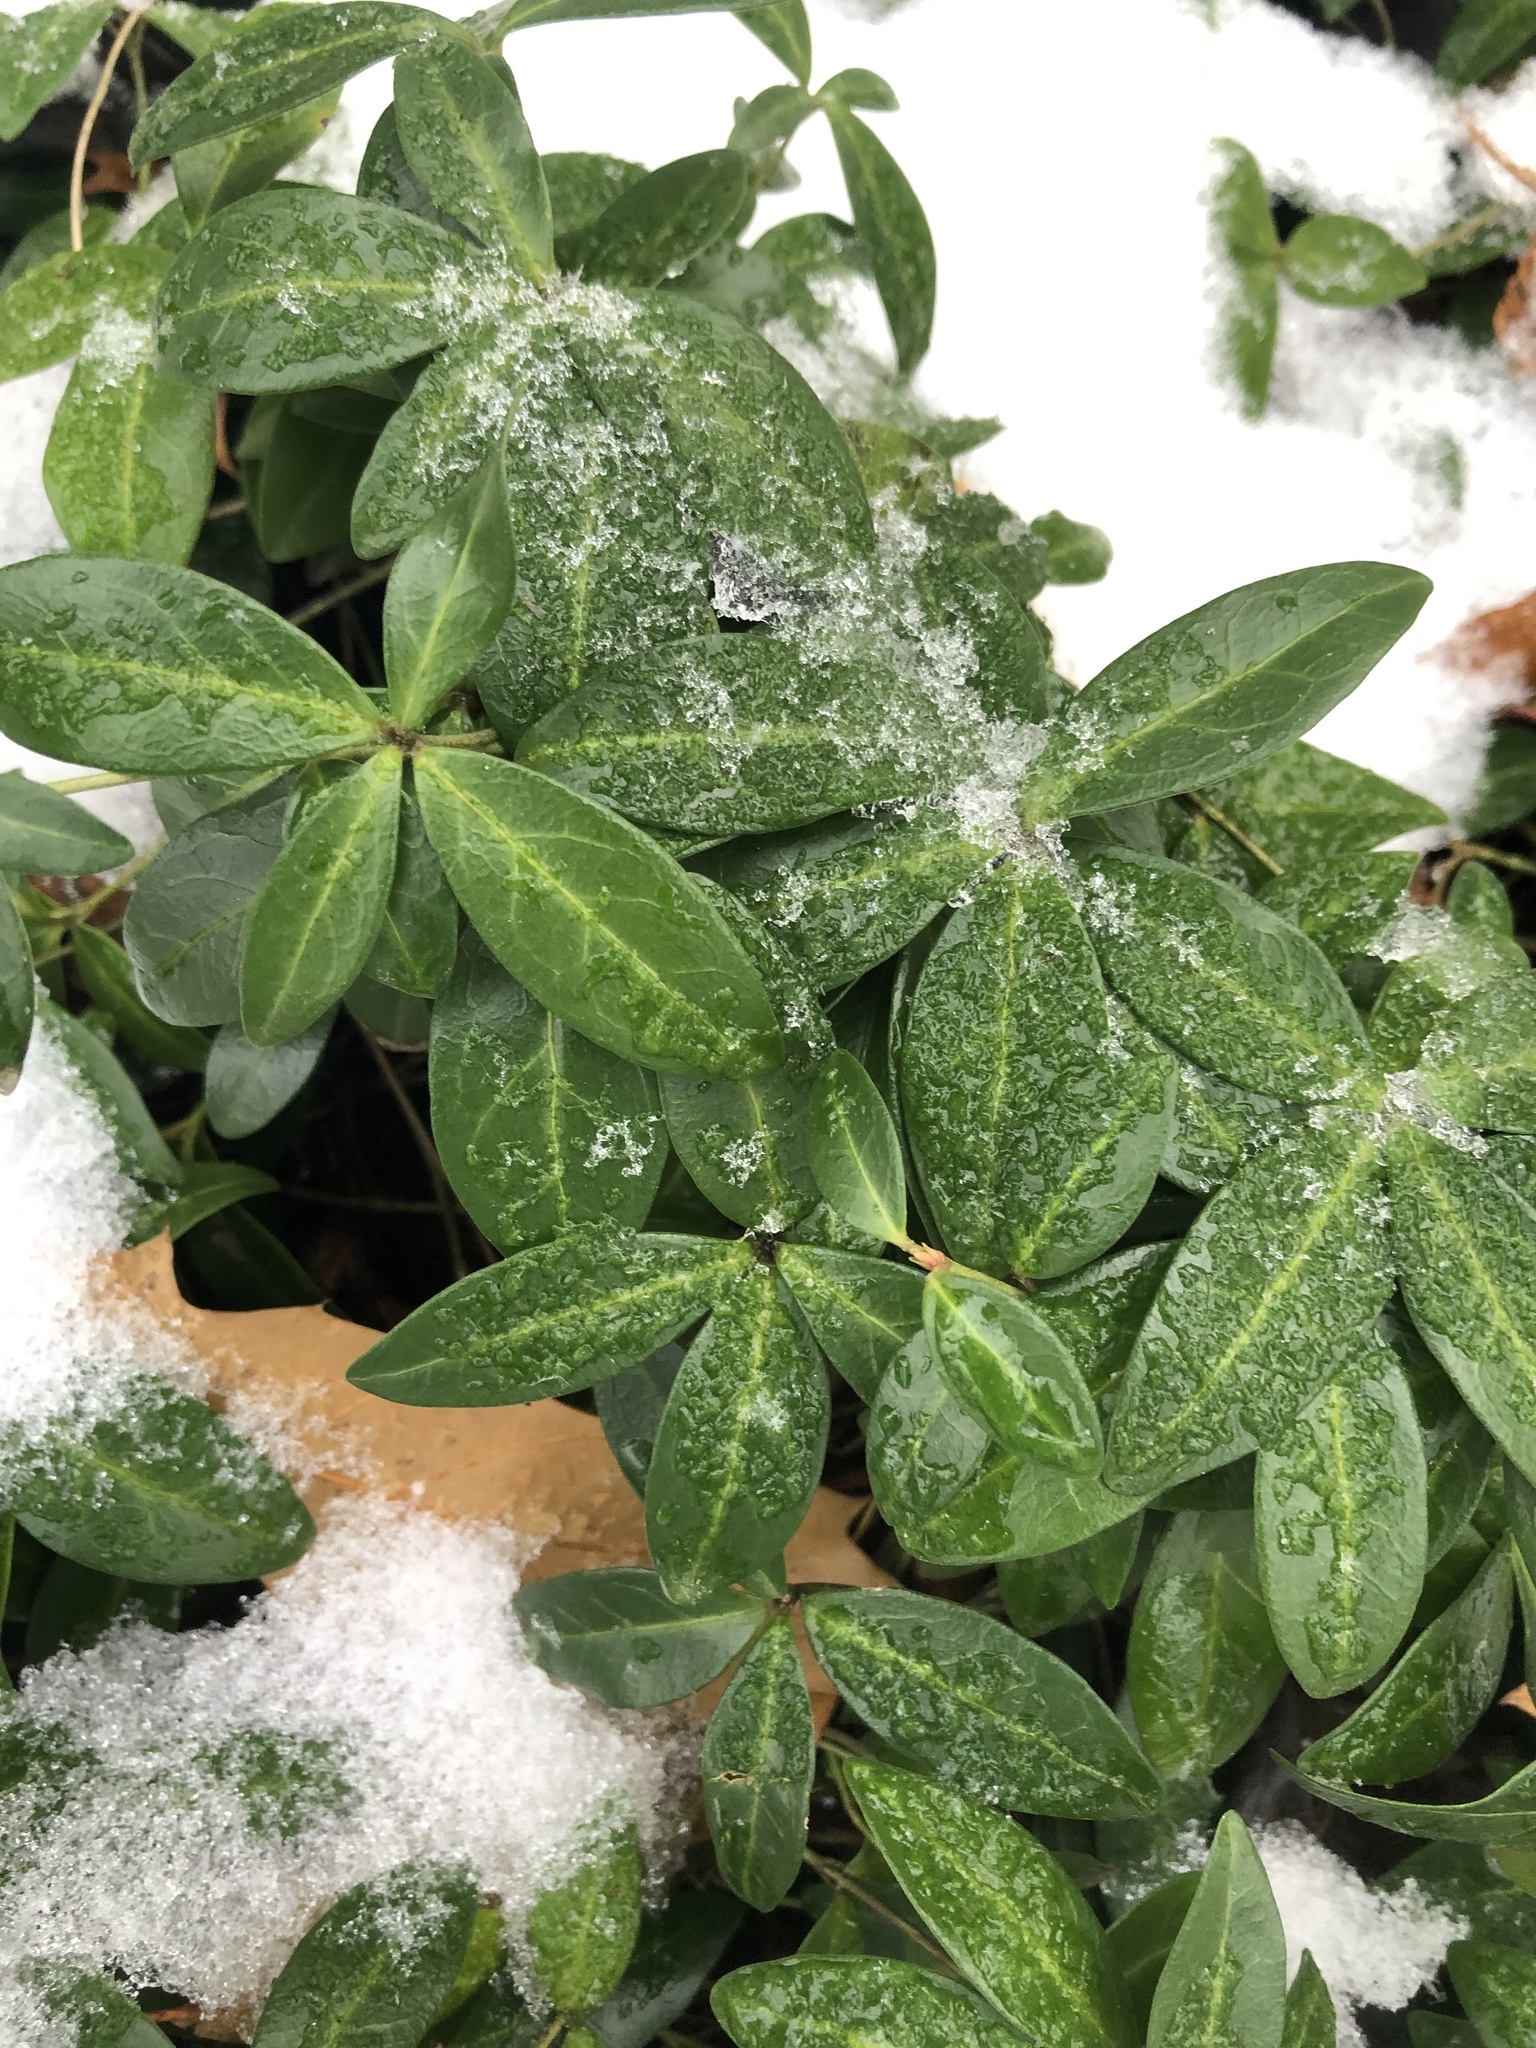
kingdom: Plantae
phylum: Tracheophyta
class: Magnoliopsida
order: Gentianales
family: Apocynaceae
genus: Vinca
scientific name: Vinca minor
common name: Lesser periwinkle
